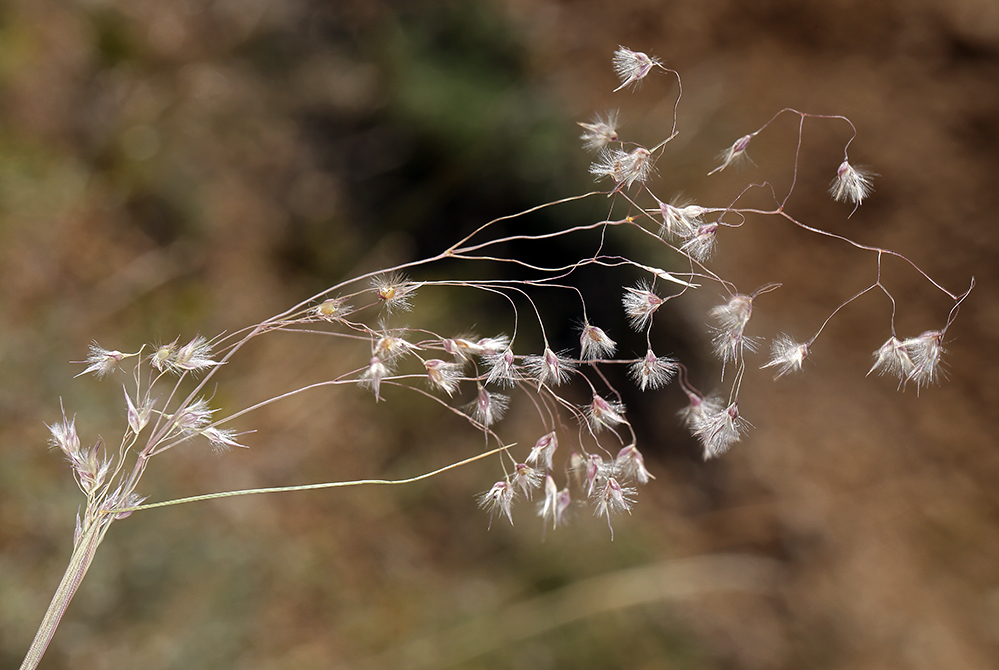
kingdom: Plantae
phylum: Tracheophyta
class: Liliopsida
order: Poales
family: Poaceae
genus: Eriocoma
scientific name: Eriocoma hymenoides
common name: Indian mountain ricegrass
